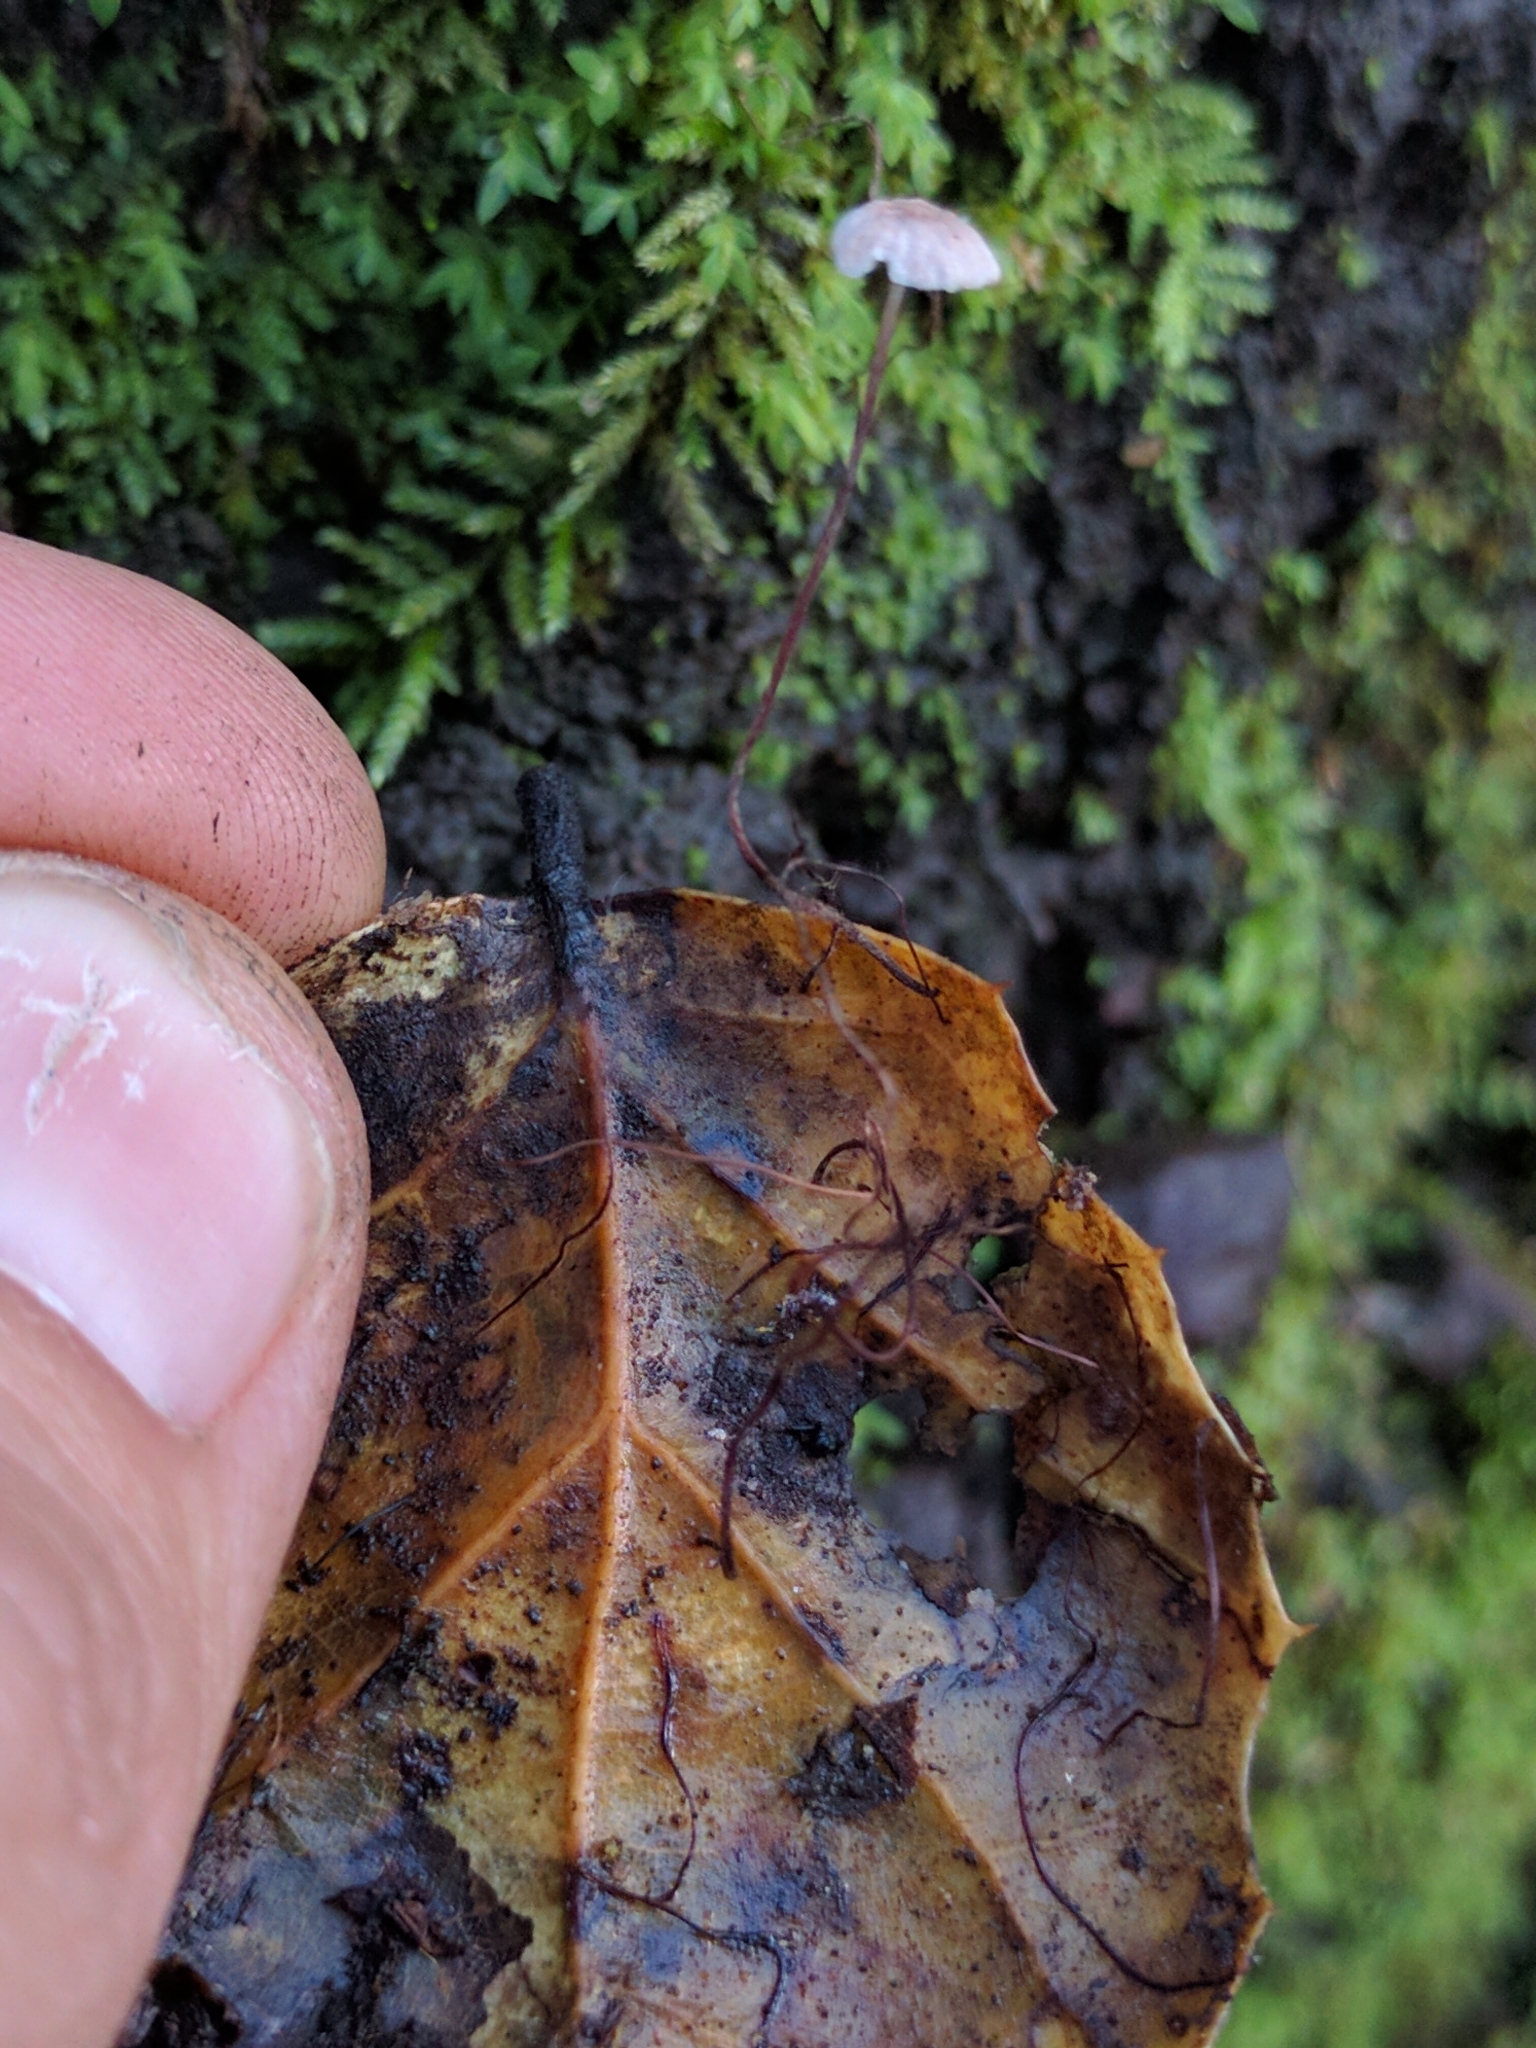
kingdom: Fungi
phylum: Basidiomycota
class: Agaricomycetes
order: Agaricales
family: Omphalotaceae
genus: Collybiopsis
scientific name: Collybiopsis quercophila
